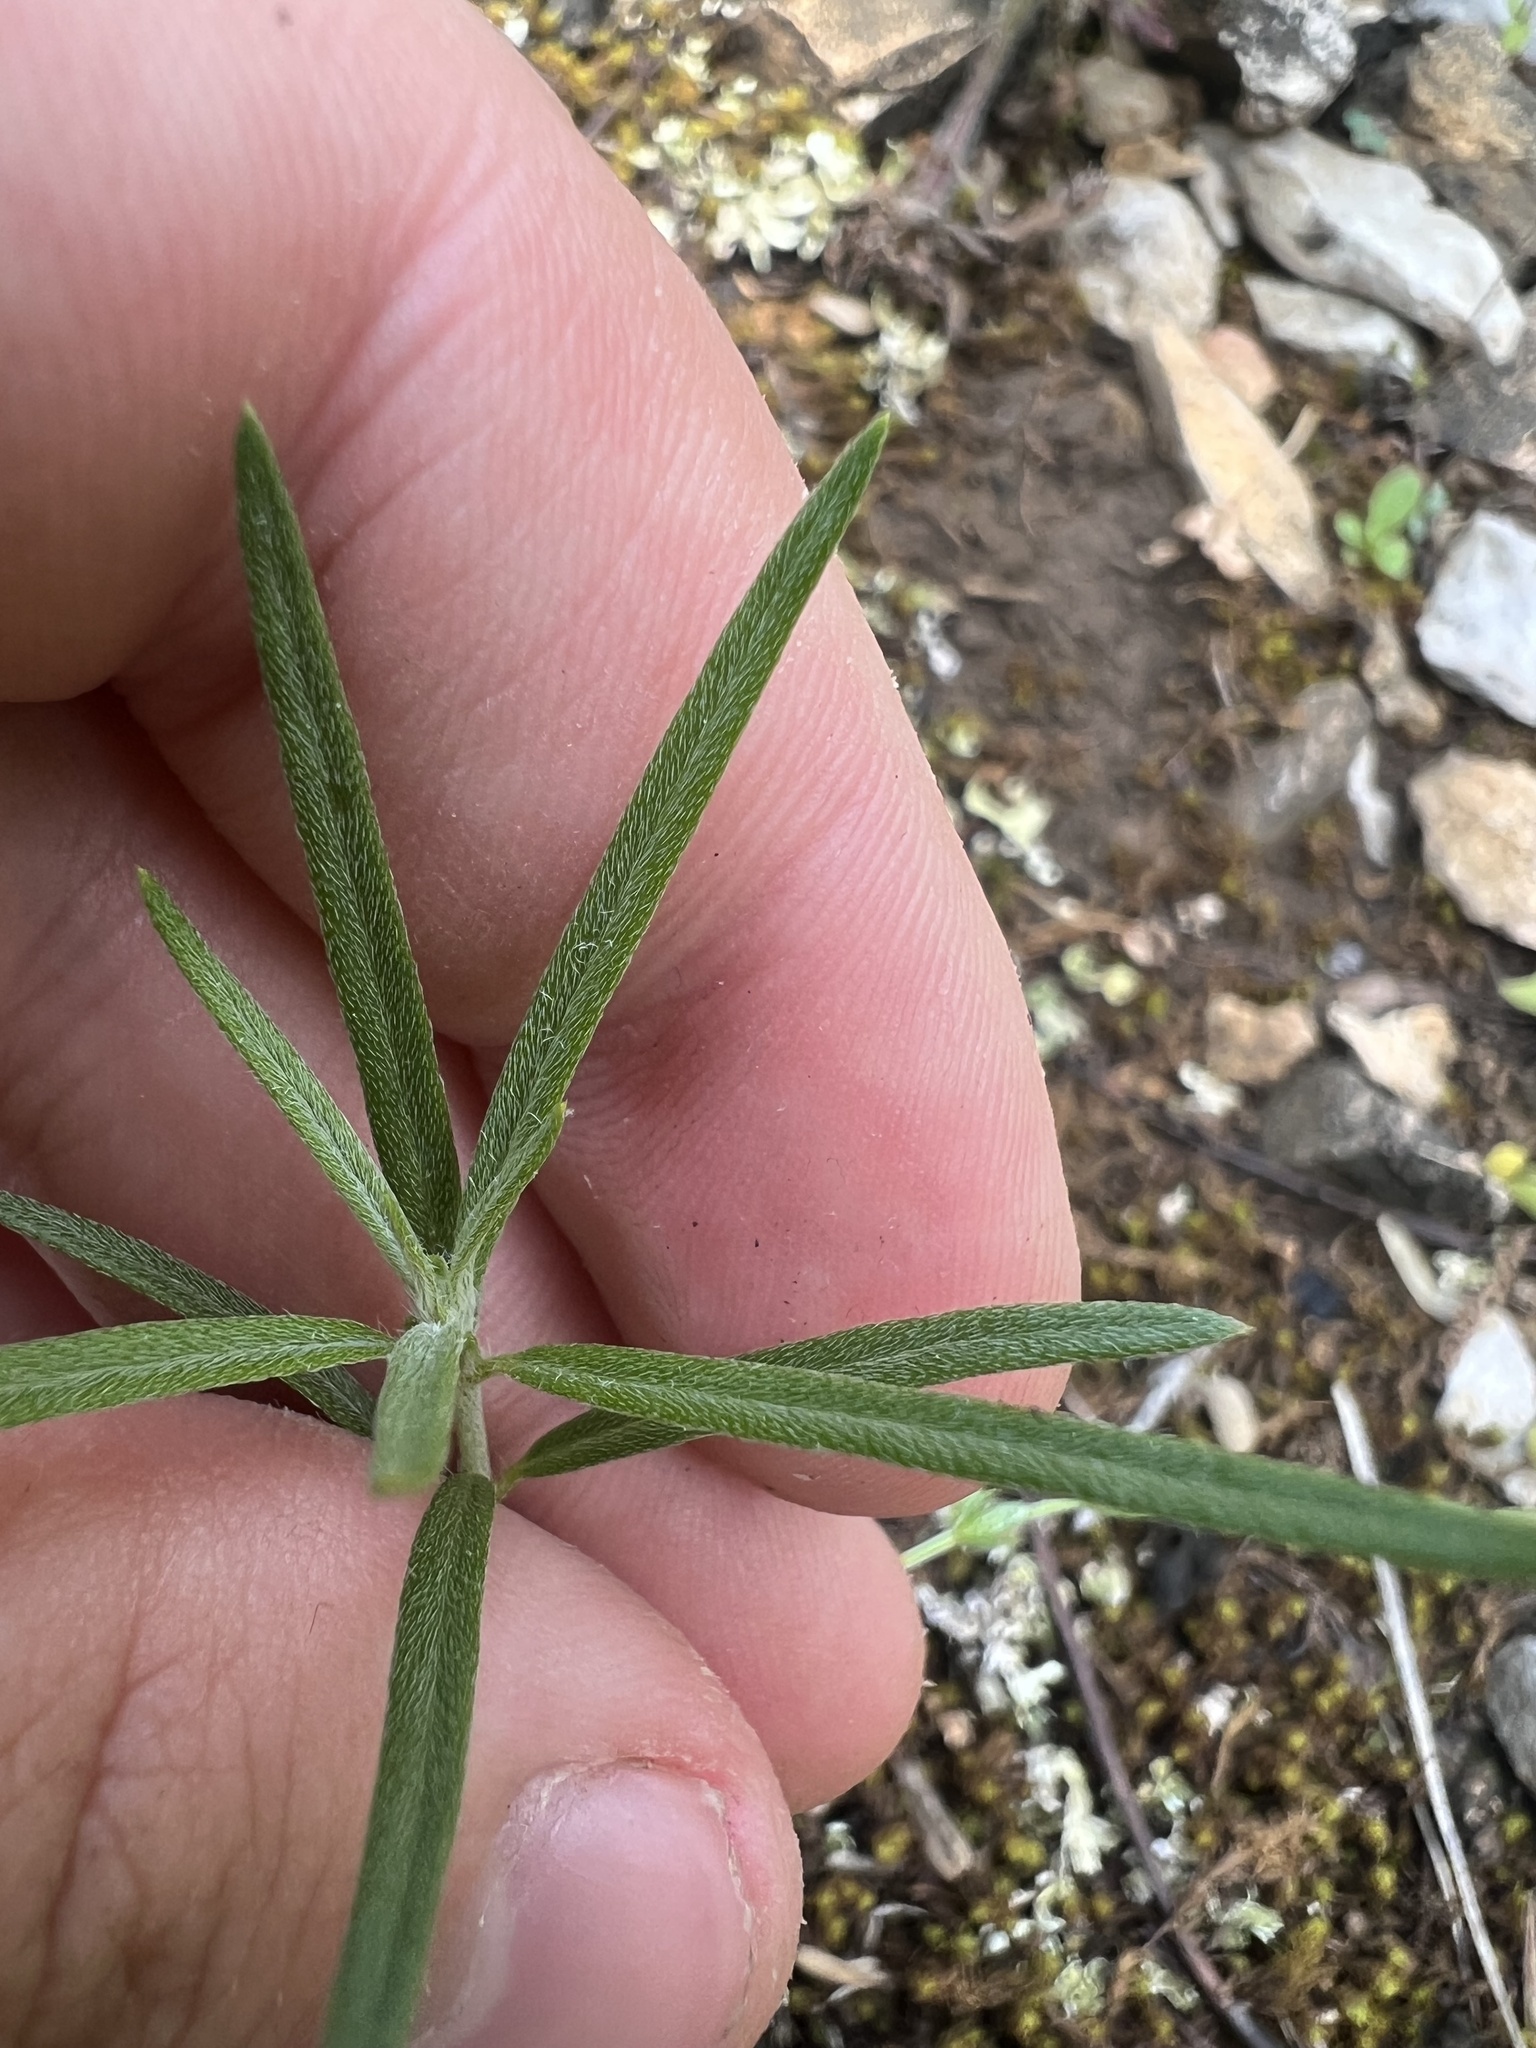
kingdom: Plantae
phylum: Tracheophyta
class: Magnoliopsida
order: Boraginales
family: Heliotropiaceae
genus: Euploca
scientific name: Euploca tenella
